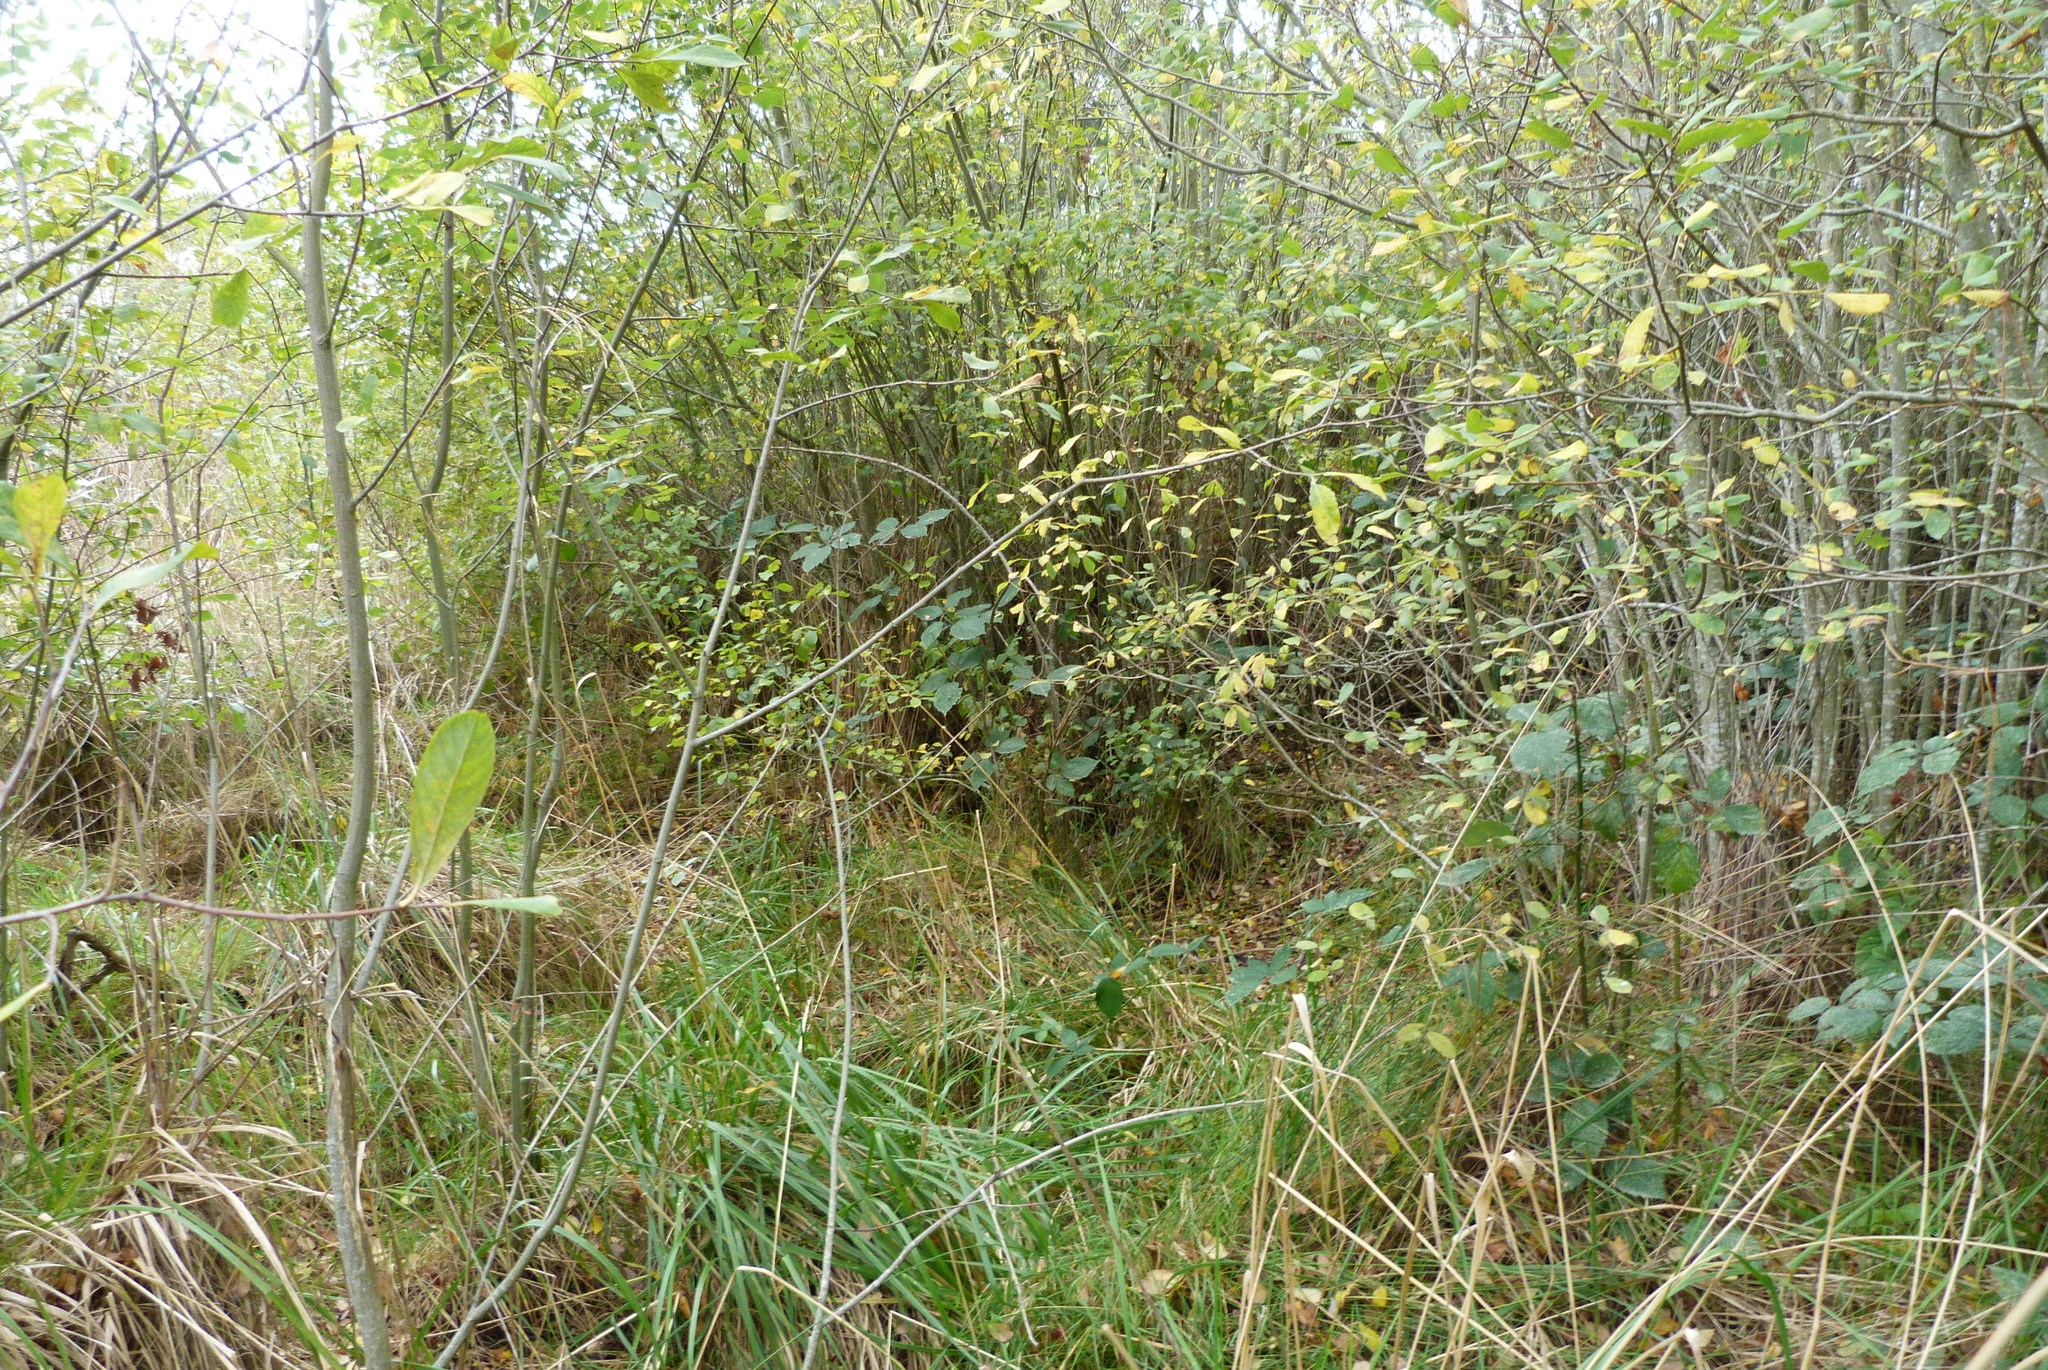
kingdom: Plantae
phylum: Tracheophyta
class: Magnoliopsida
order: Malpighiales
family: Salicaceae
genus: Salix
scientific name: Salix cinerea
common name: Common sallow
